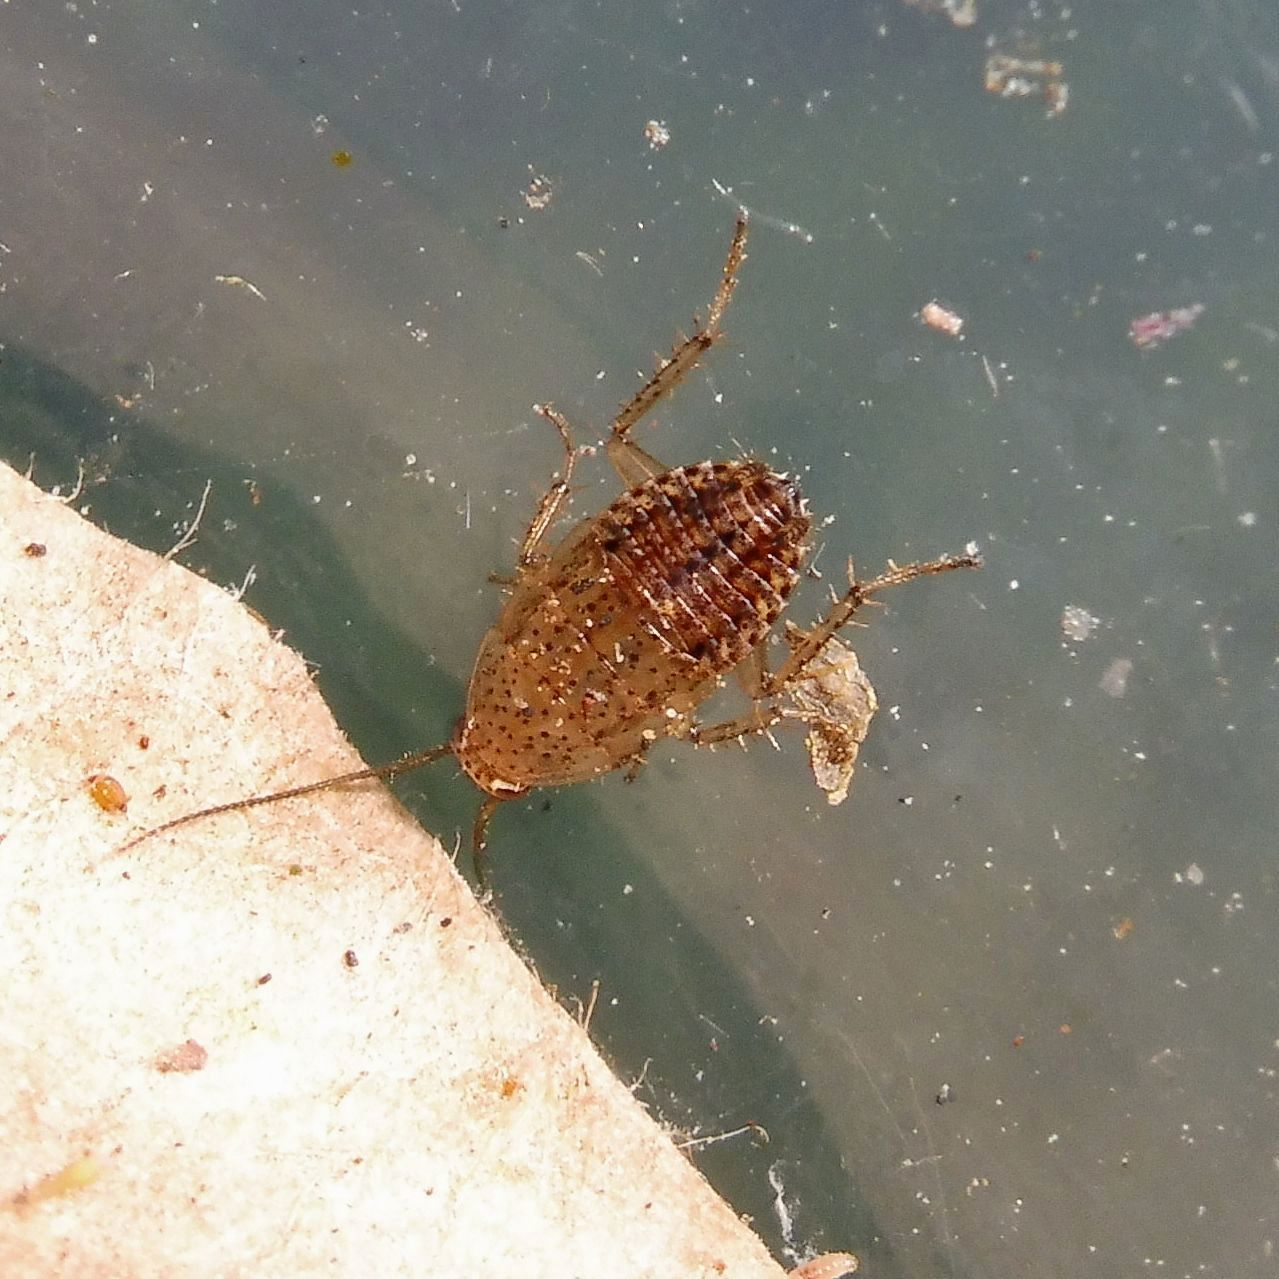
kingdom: Animalia
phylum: Arthropoda
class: Insecta
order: Blattodea
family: Ectobiidae
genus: Ectobius
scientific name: Ectobius pallidus
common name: Tawny cockroach
